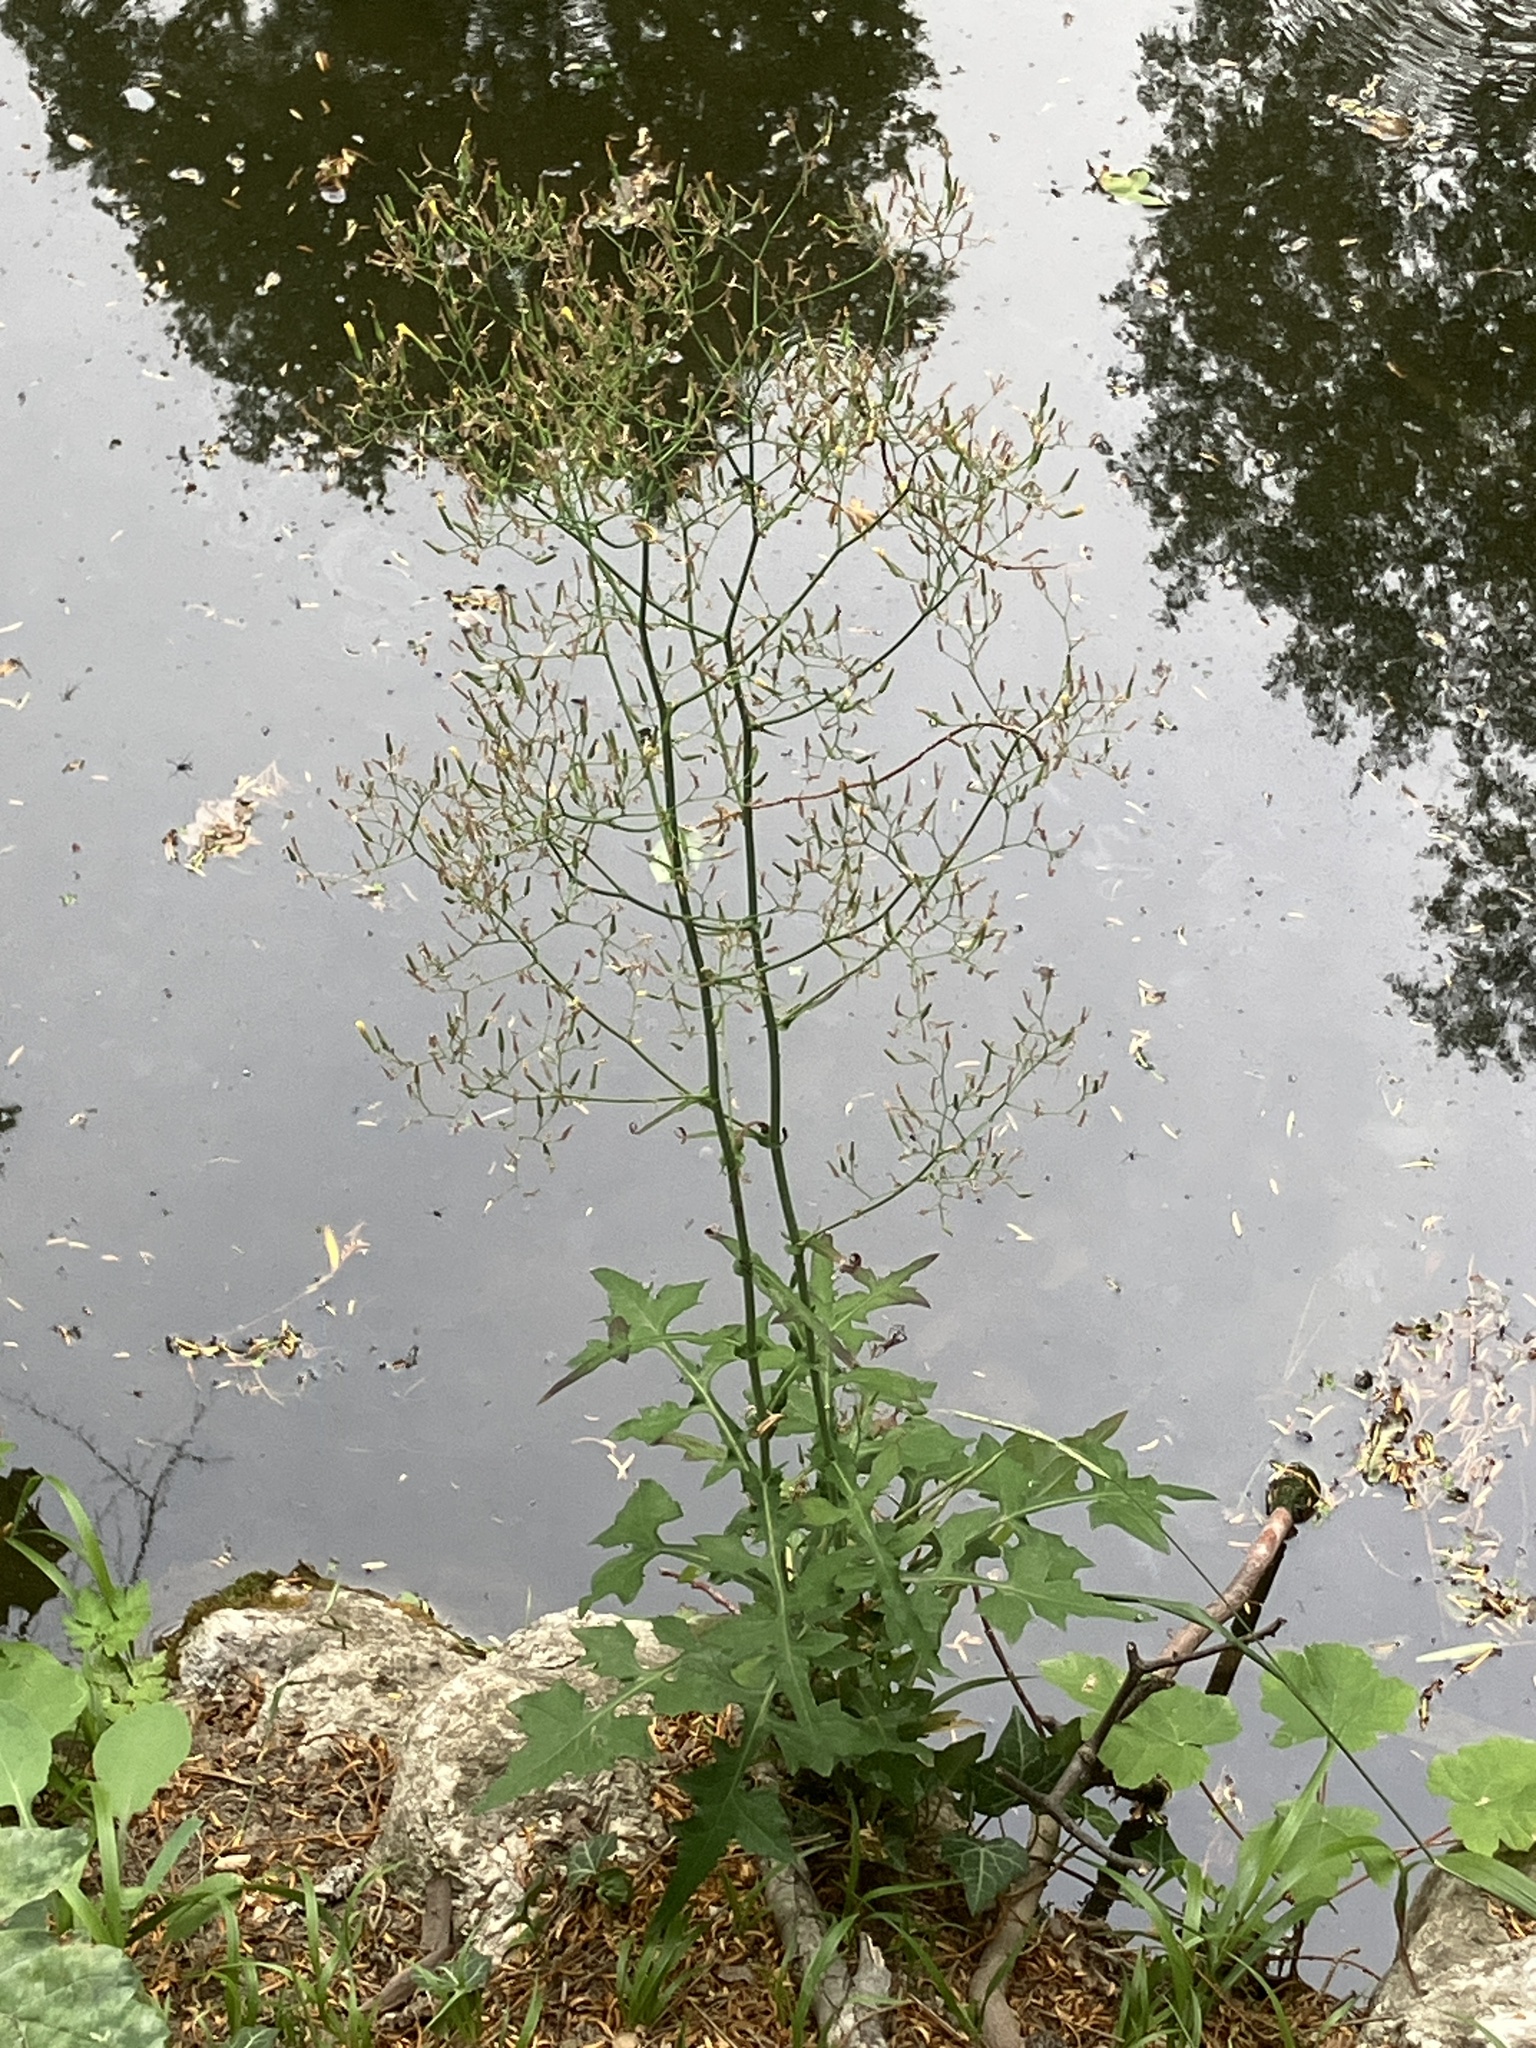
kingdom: Plantae
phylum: Tracheophyta
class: Magnoliopsida
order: Asterales
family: Asteraceae
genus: Mycelis
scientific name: Mycelis muralis
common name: Wall lettuce
